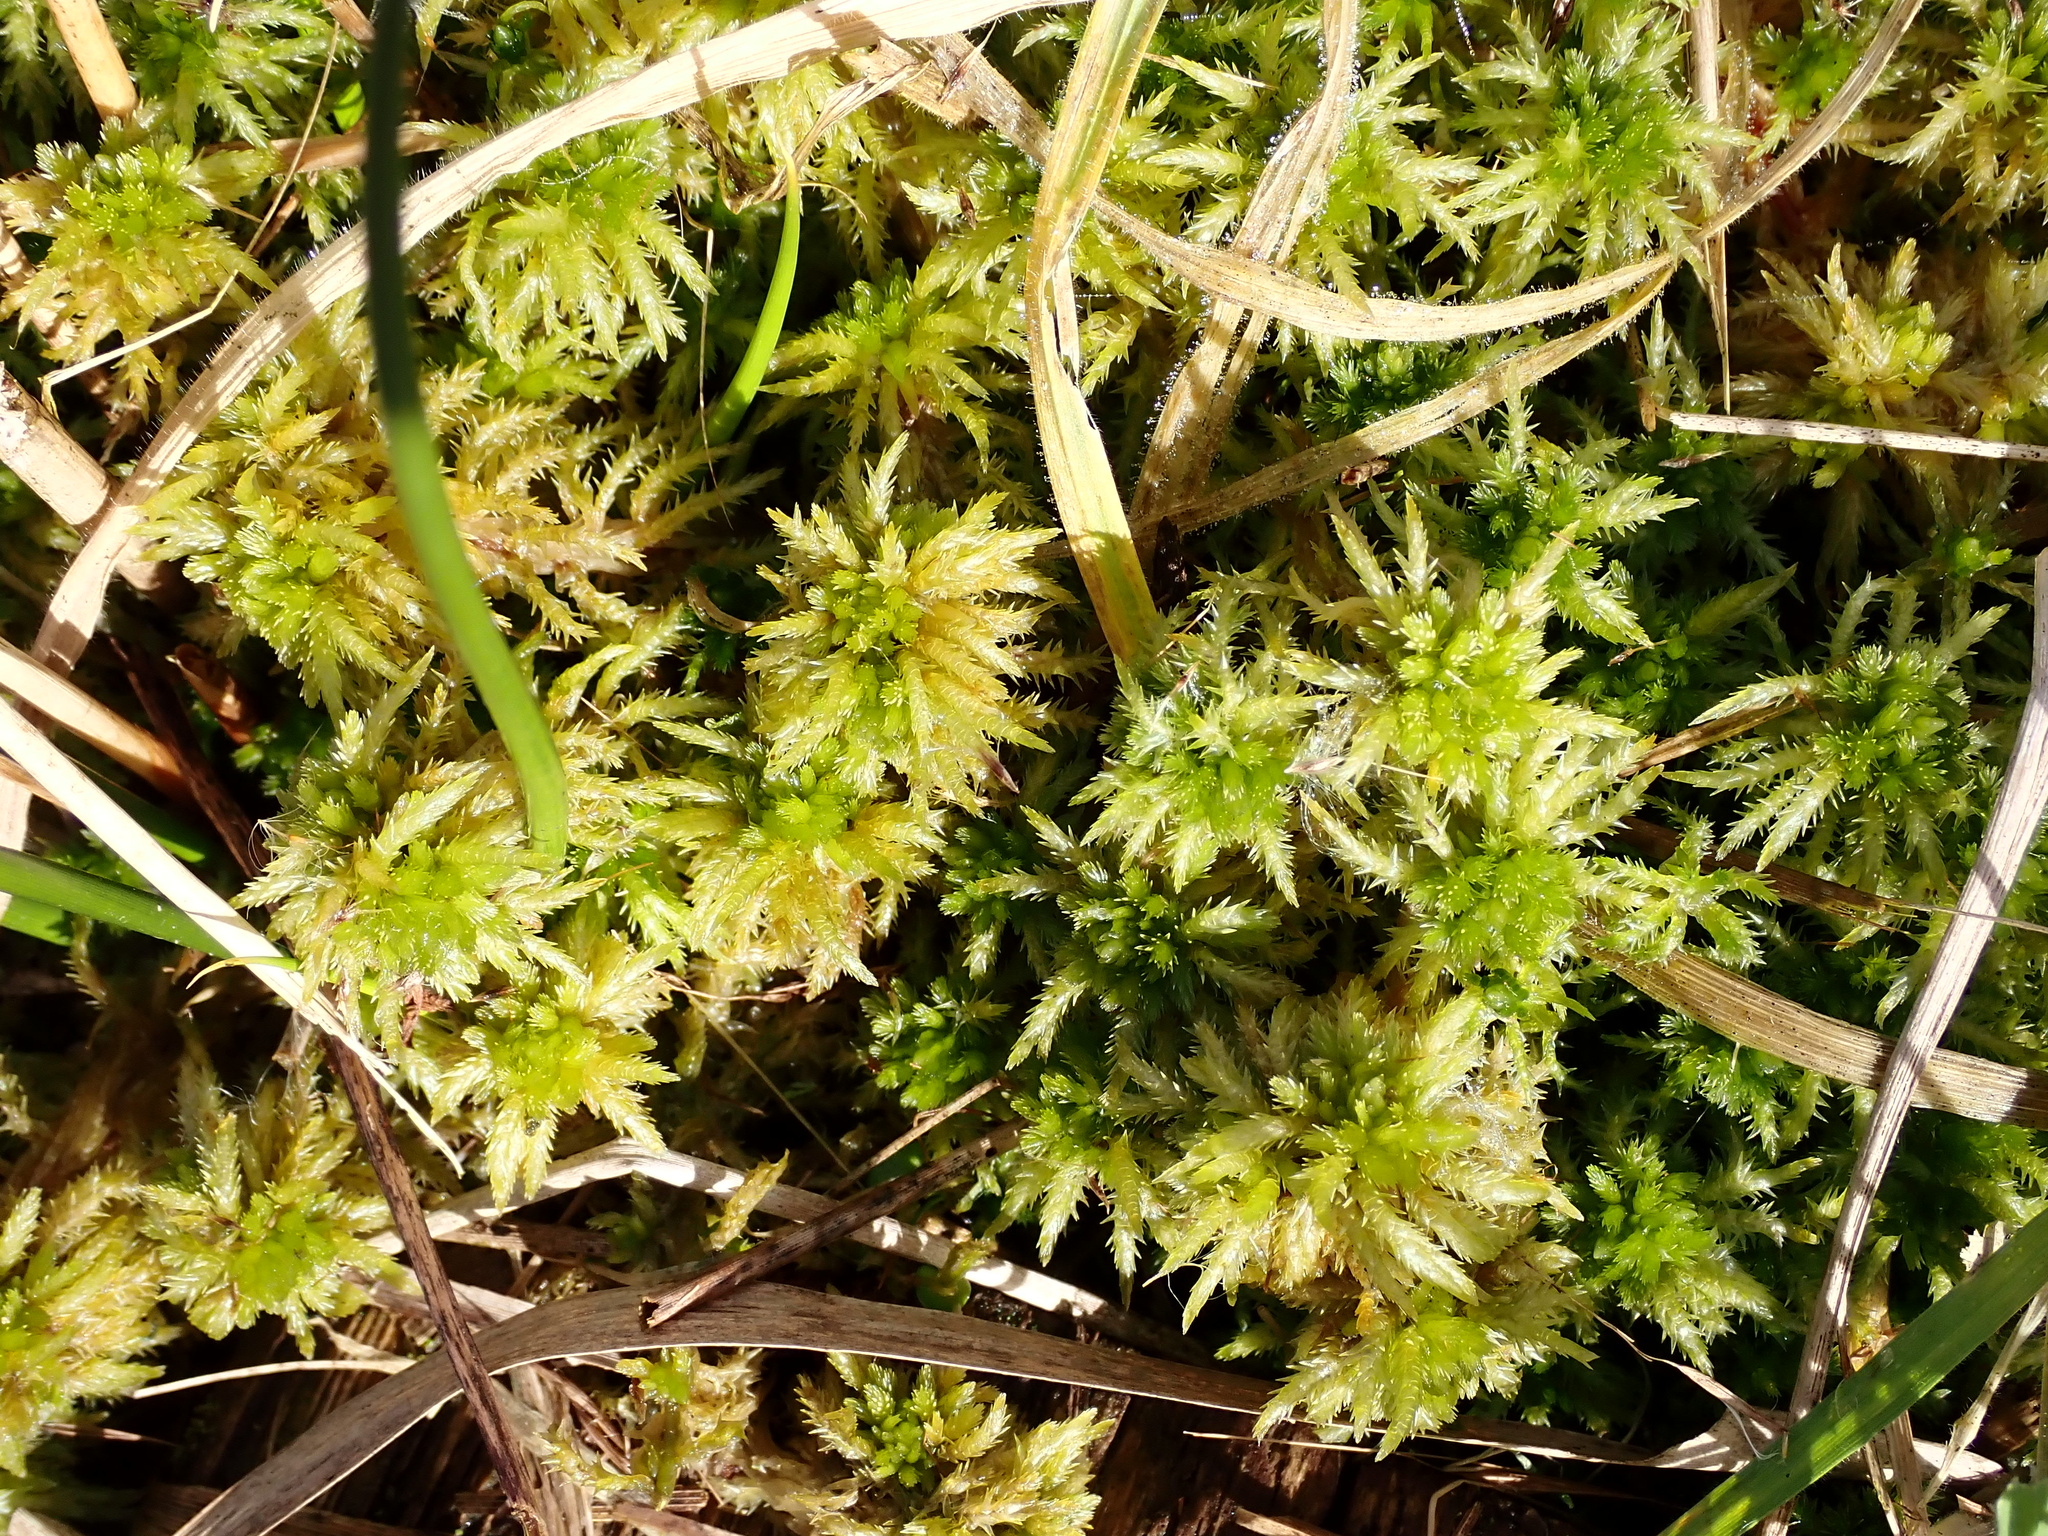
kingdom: Plantae
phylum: Bryophyta
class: Sphagnopsida
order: Sphagnales
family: Sphagnaceae
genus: Sphagnum
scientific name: Sphagnum squarrosum
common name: Shaggy peat moss
